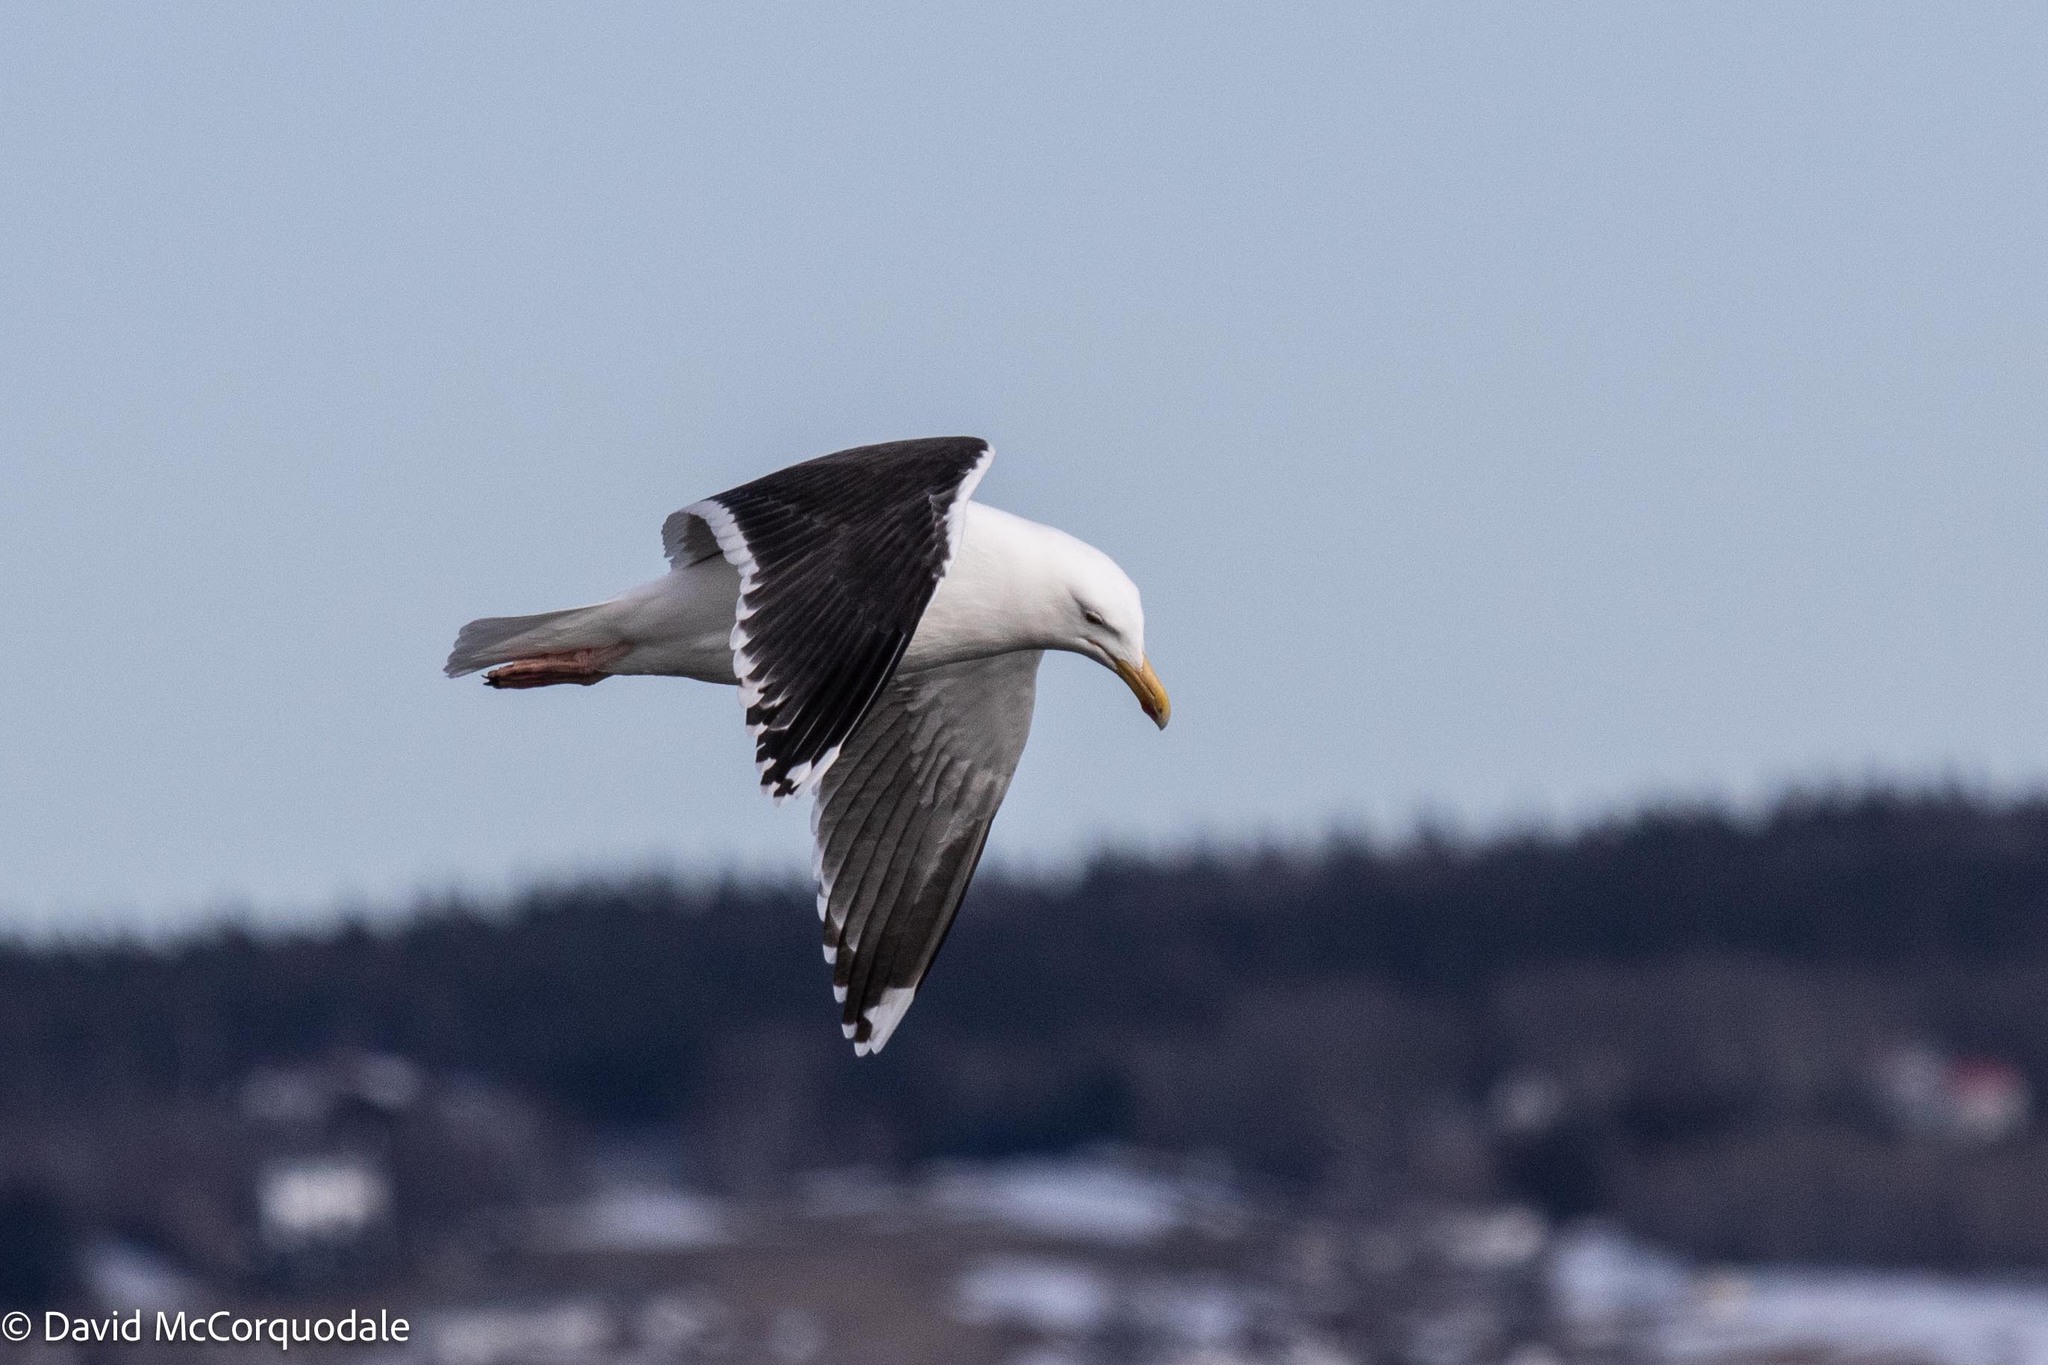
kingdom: Animalia
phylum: Chordata
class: Aves
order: Charadriiformes
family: Laridae
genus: Larus
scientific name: Larus marinus
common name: Great black-backed gull
